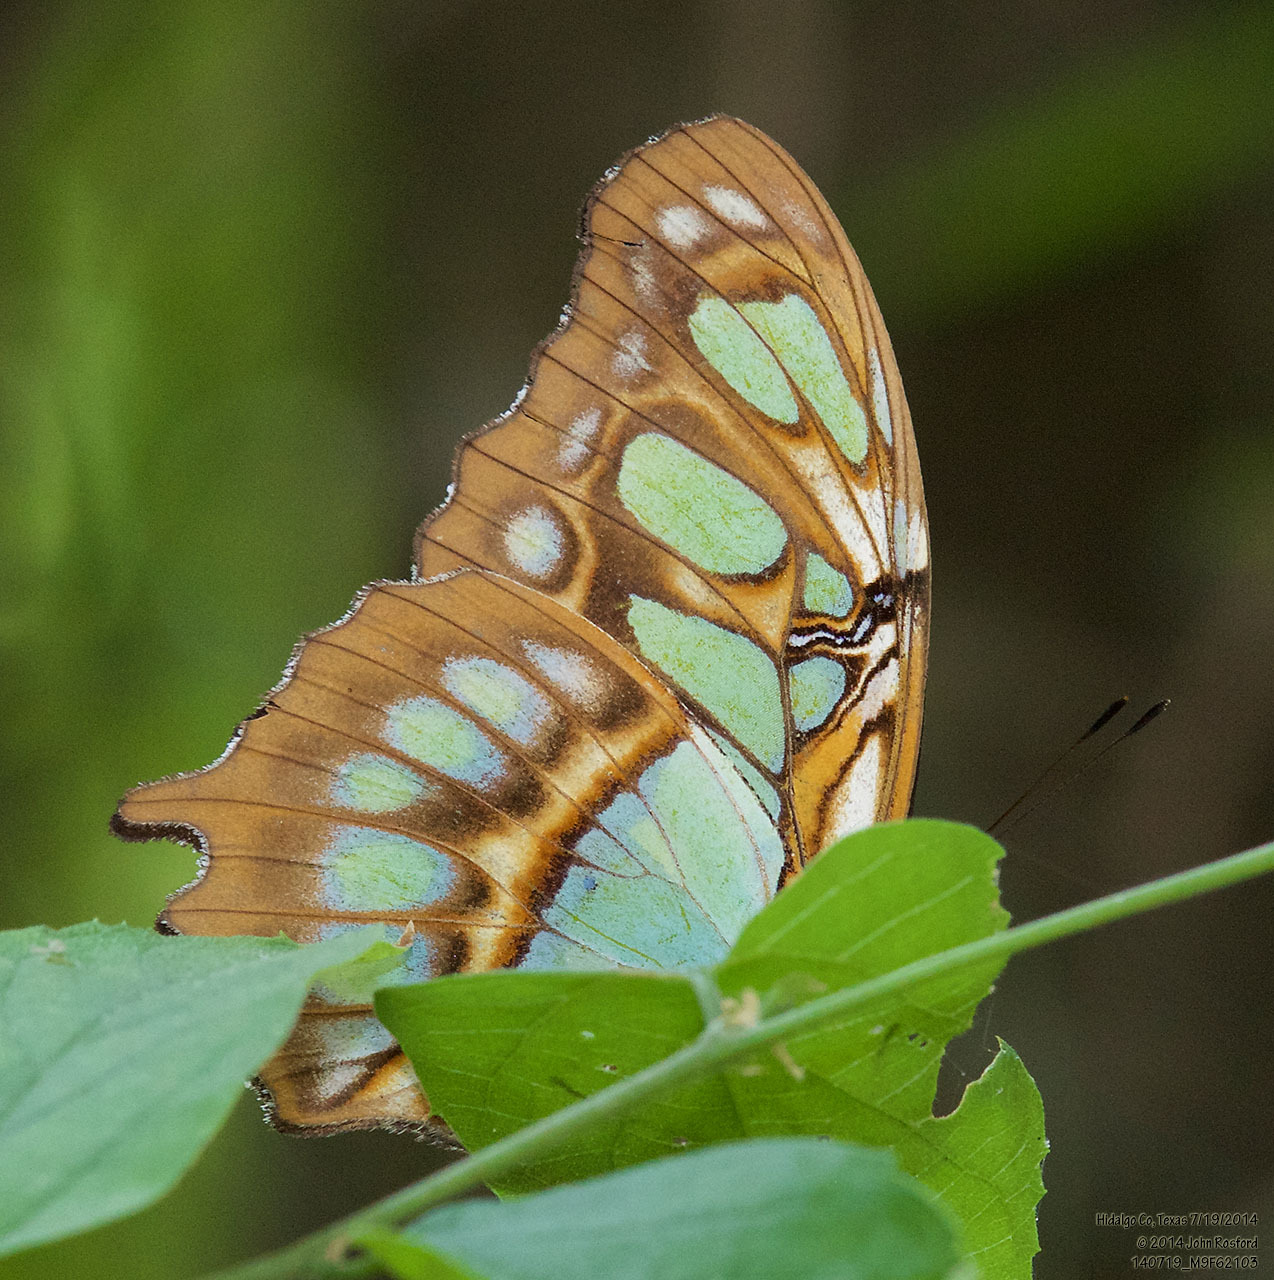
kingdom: Animalia
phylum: Arthropoda
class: Insecta
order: Lepidoptera
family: Nymphalidae
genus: Siproeta
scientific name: Siproeta stelenes
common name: Malachite
